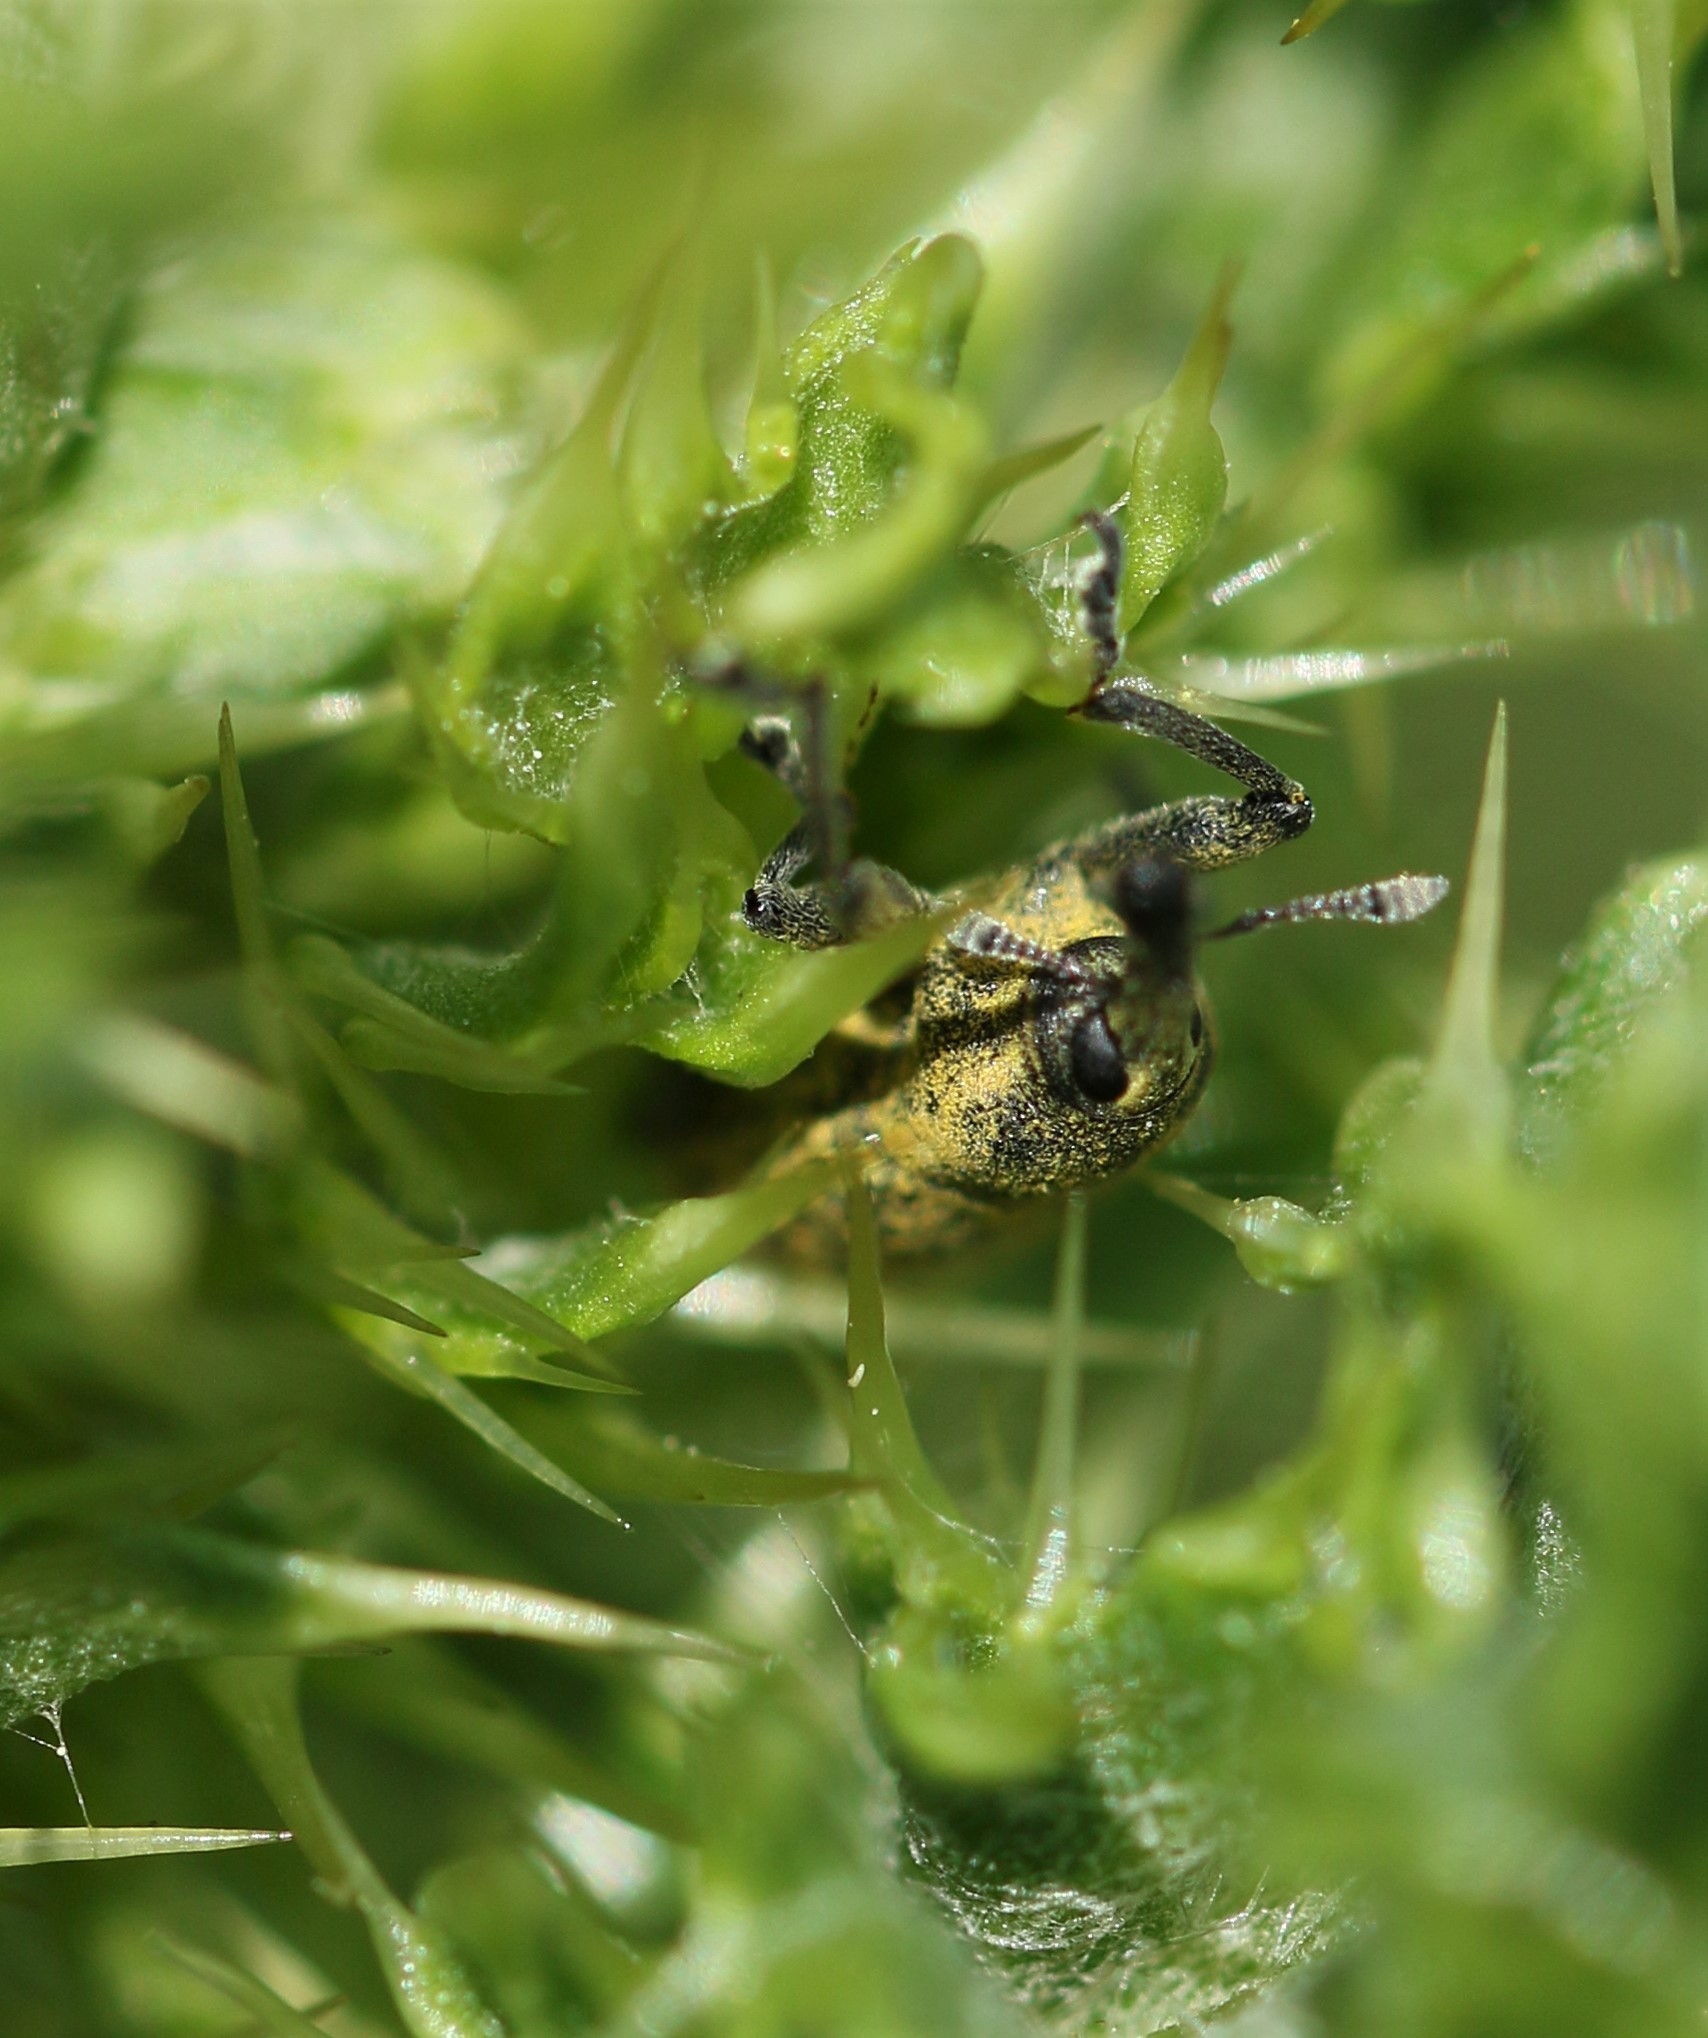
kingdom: Animalia
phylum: Arthropoda
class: Insecta
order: Coleoptera
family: Curculionidae
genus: Larinus
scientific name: Larinus carlinae
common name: Weevil
